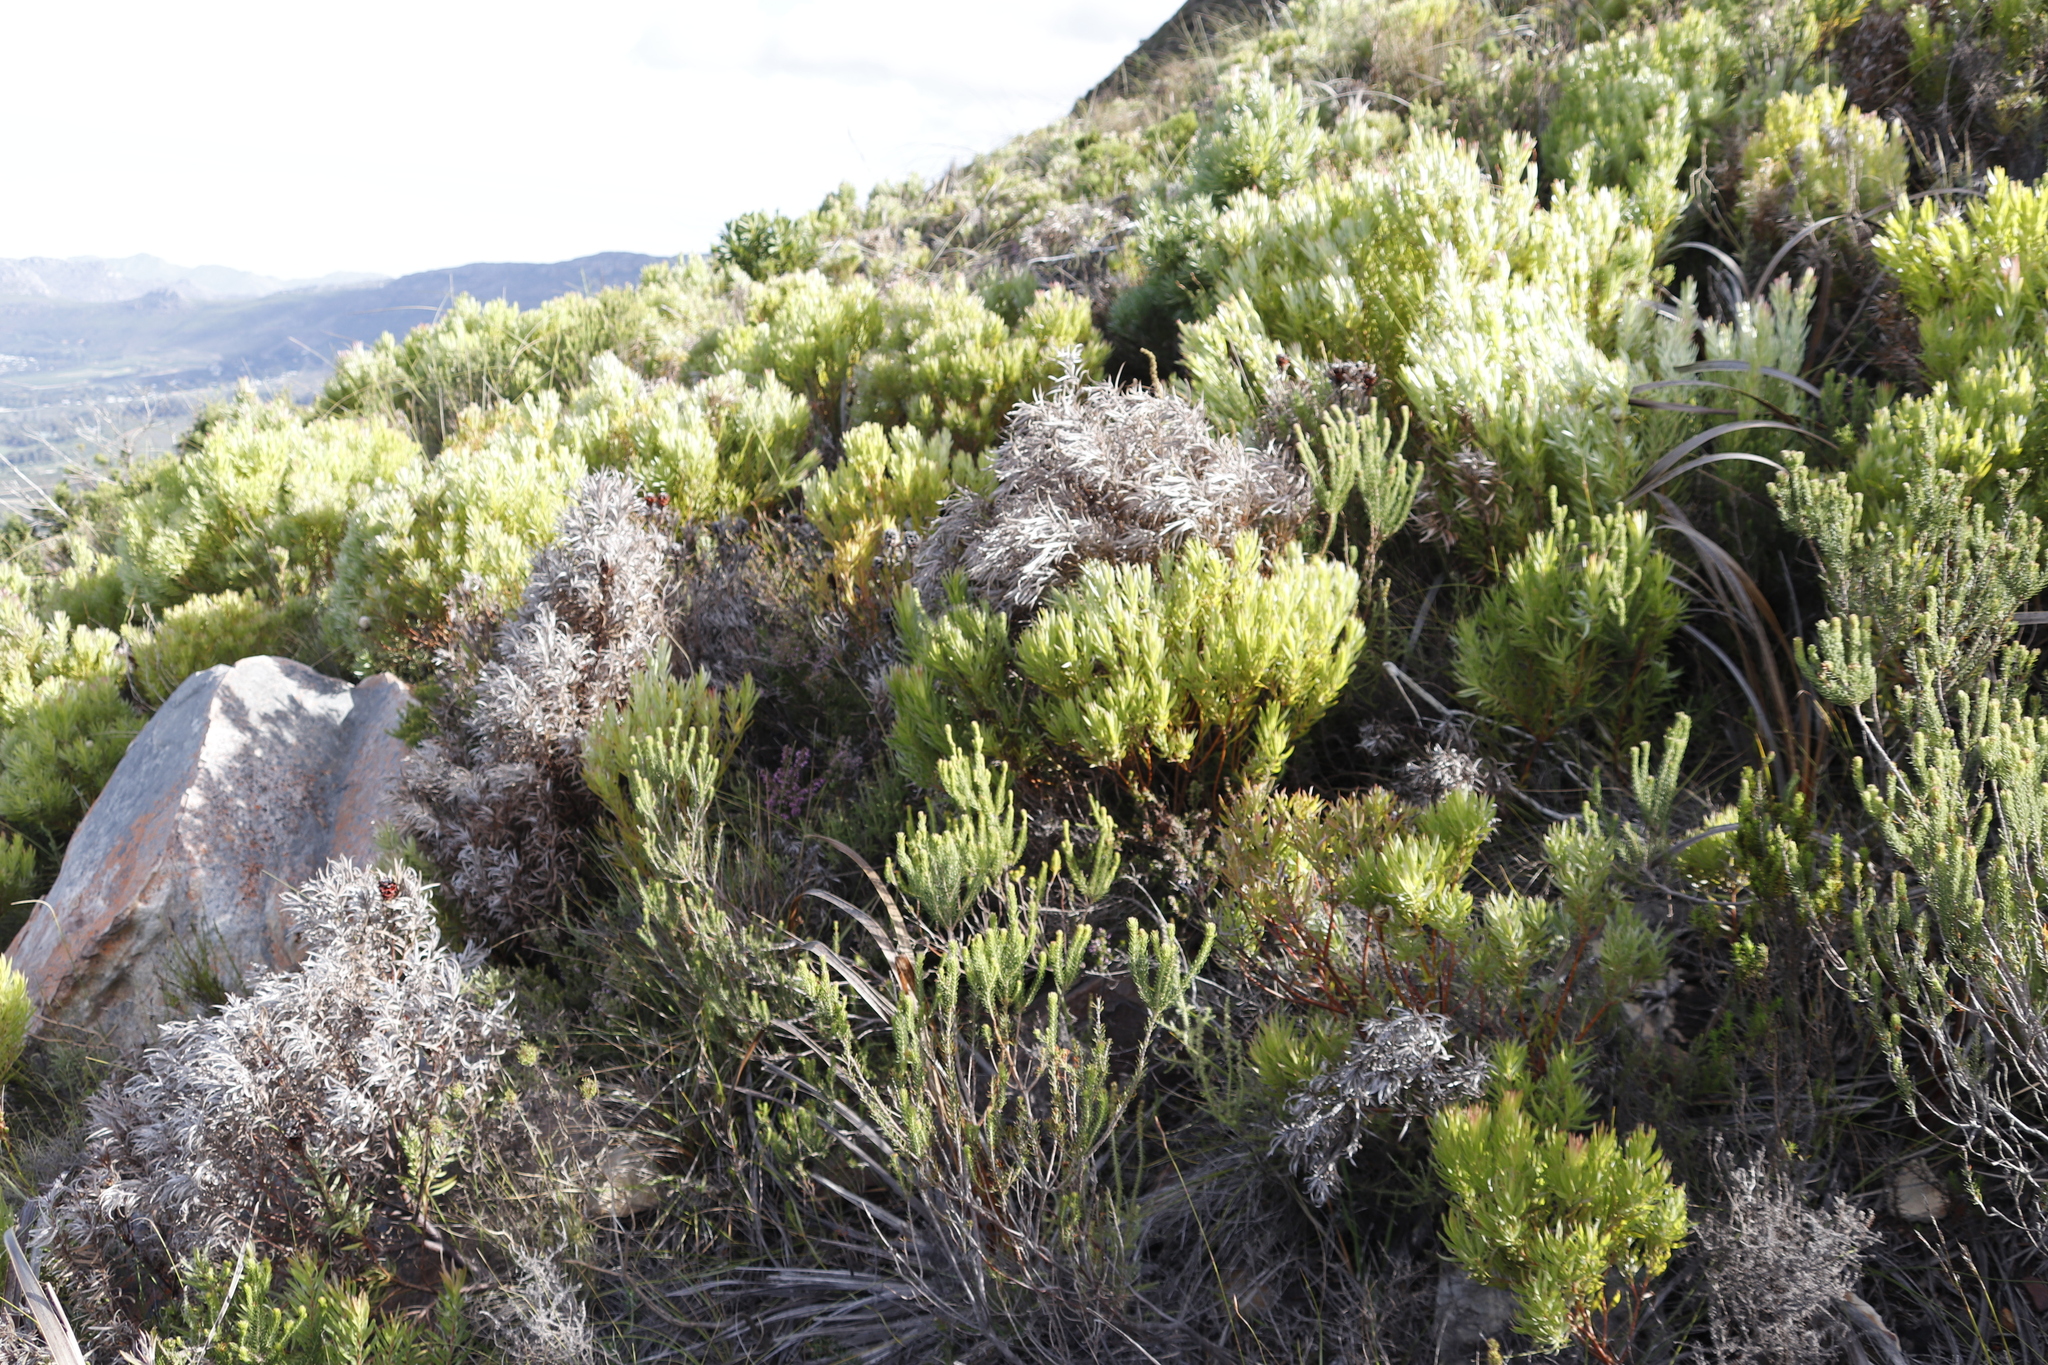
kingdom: Plantae
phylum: Tracheophyta
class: Magnoliopsida
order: Proteales
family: Proteaceae
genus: Leucadendron
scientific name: Leucadendron xanthoconus
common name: Sickle-leaf conebush
